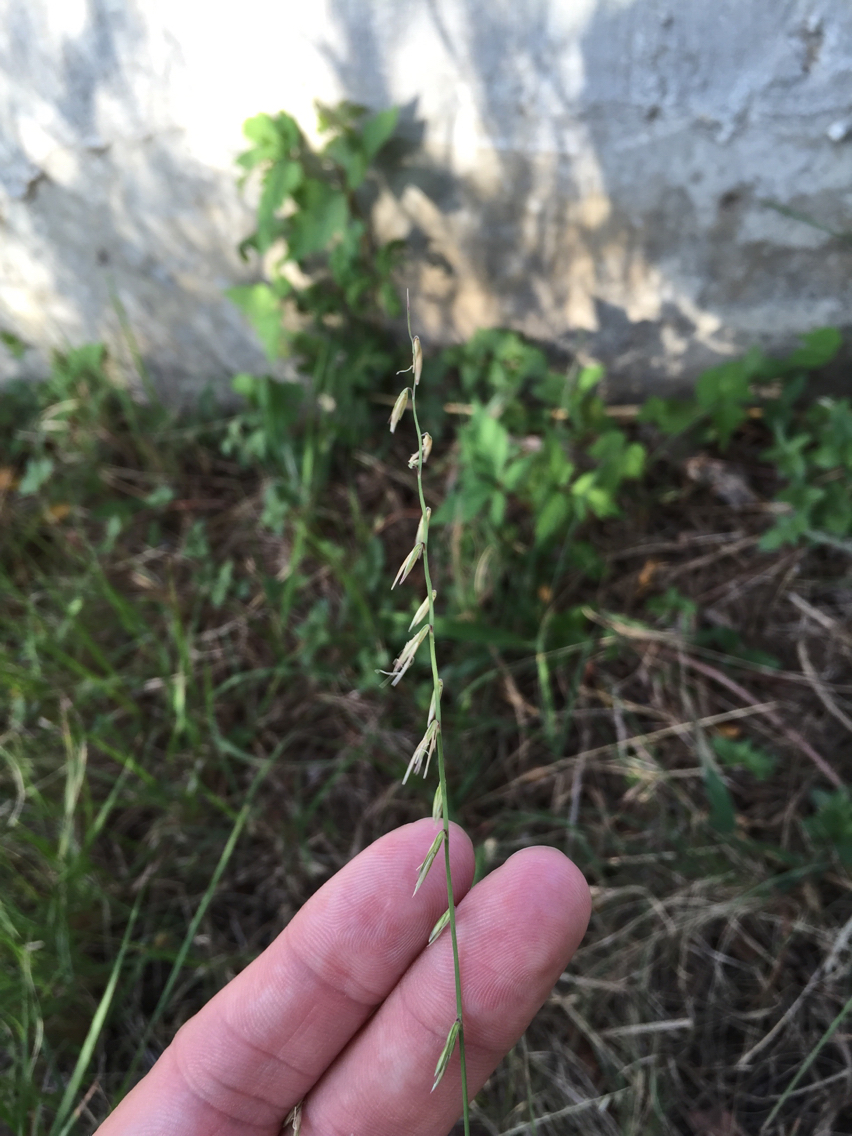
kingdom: Plantae
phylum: Tracheophyta
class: Liliopsida
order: Poales
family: Poaceae
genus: Bouteloua
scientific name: Bouteloua curtipendula
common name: Side-oats grama
